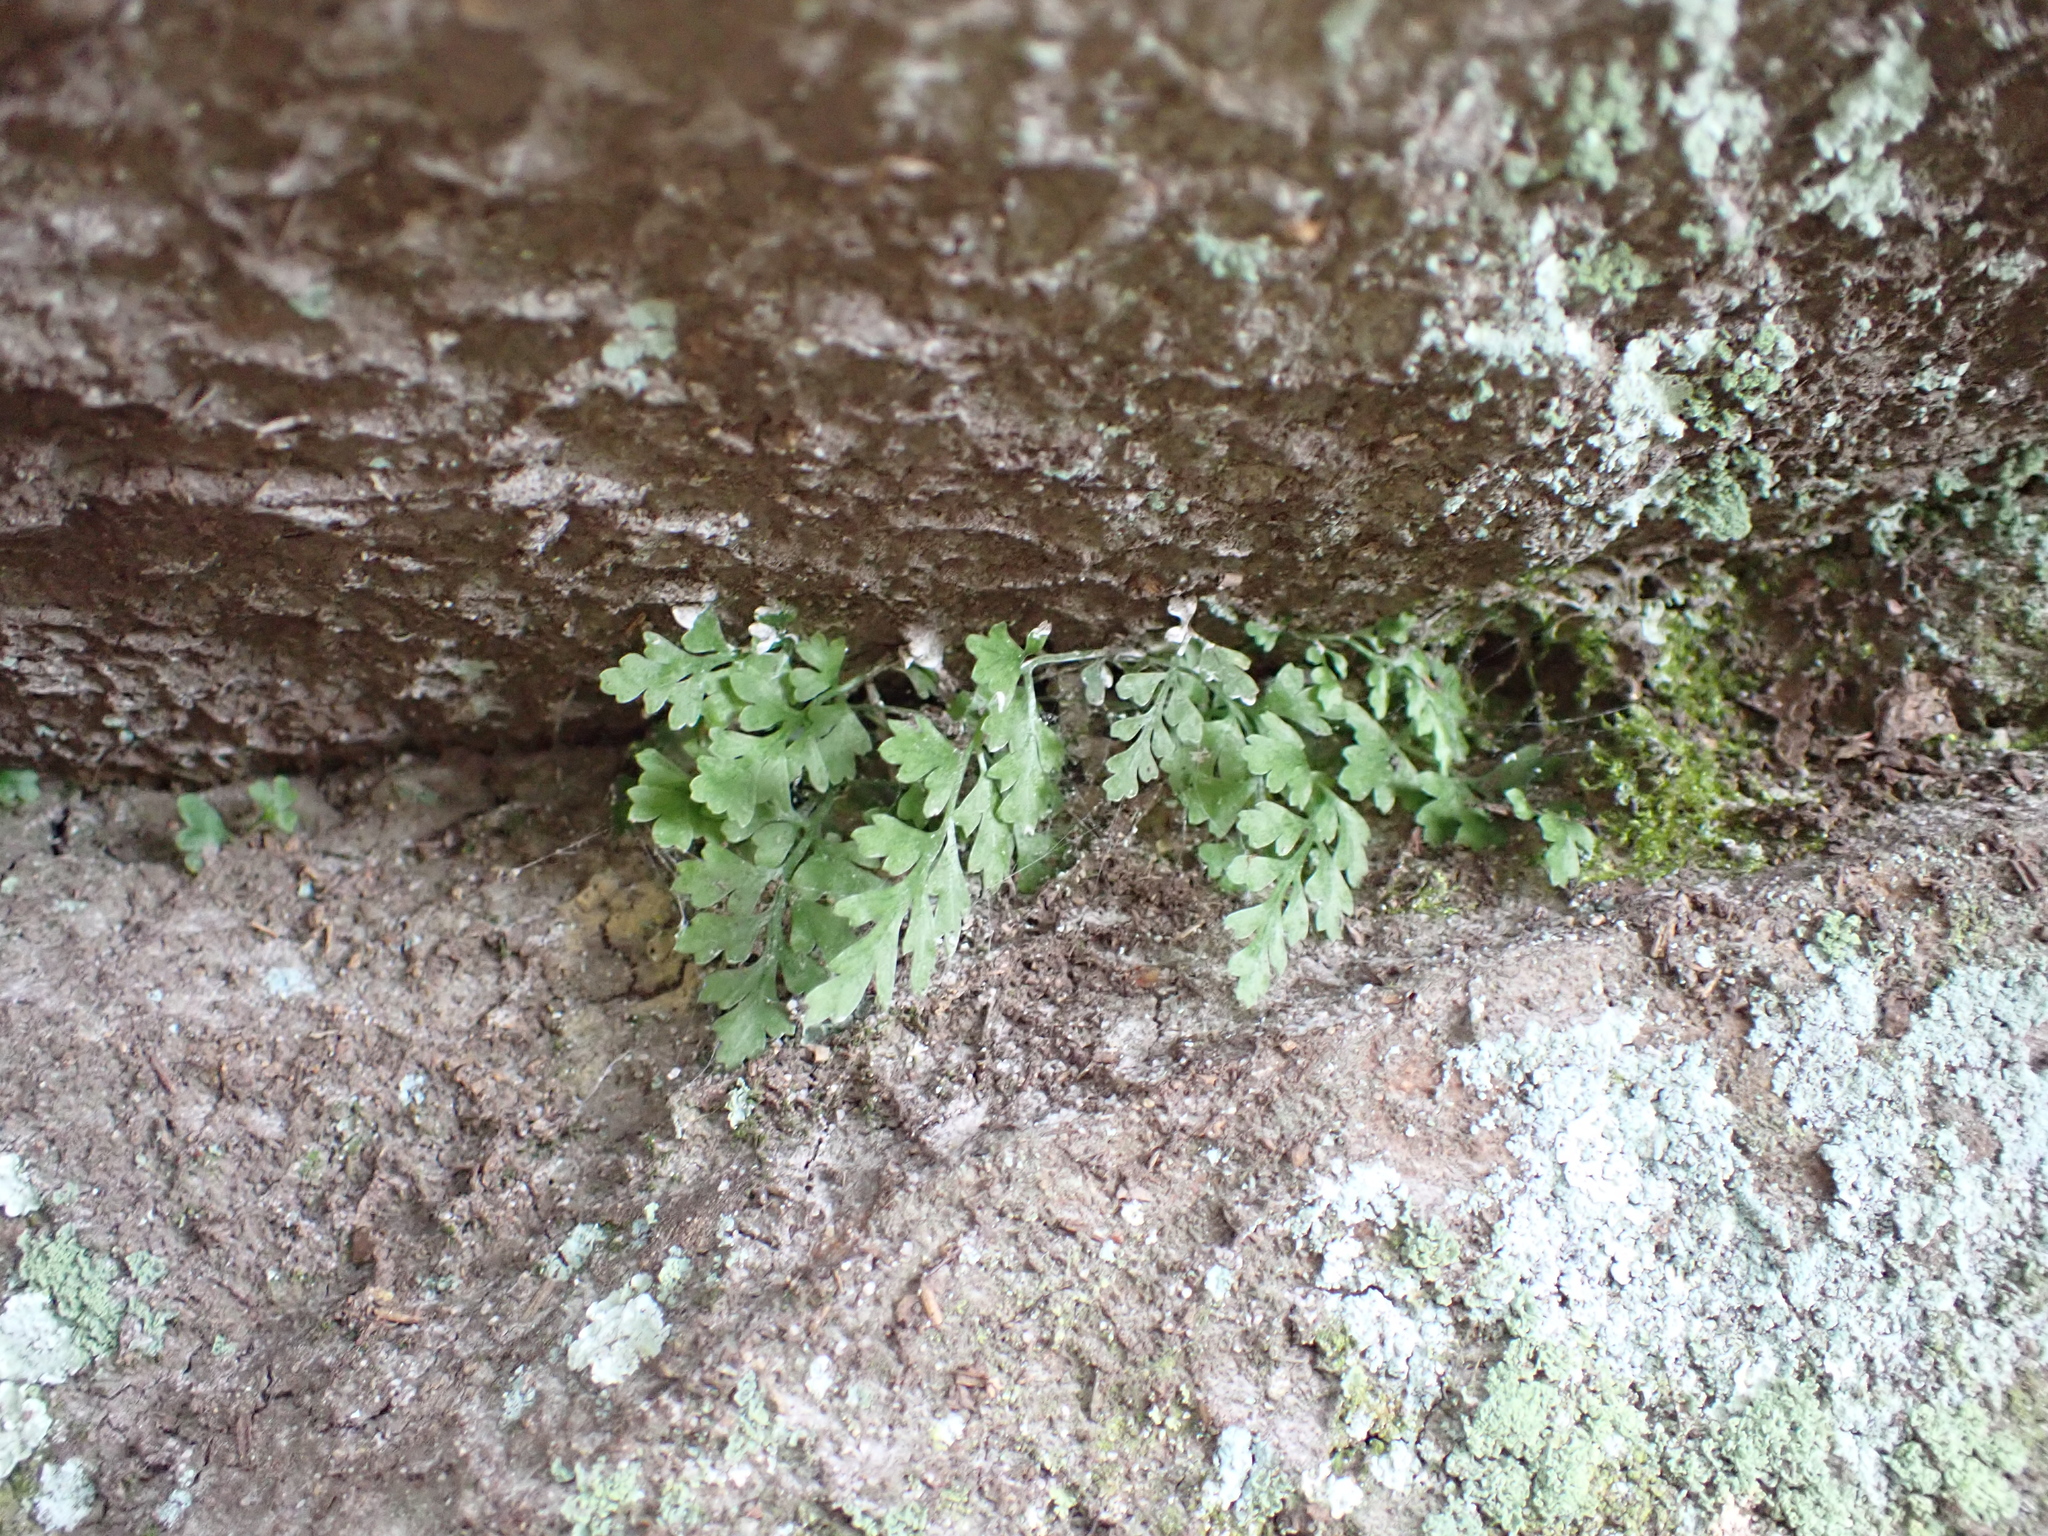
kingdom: Plantae
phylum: Tracheophyta
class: Polypodiopsida
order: Polypodiales
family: Aspleniaceae
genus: Asplenium
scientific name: Asplenium montanum
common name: Mountain spleenwort
